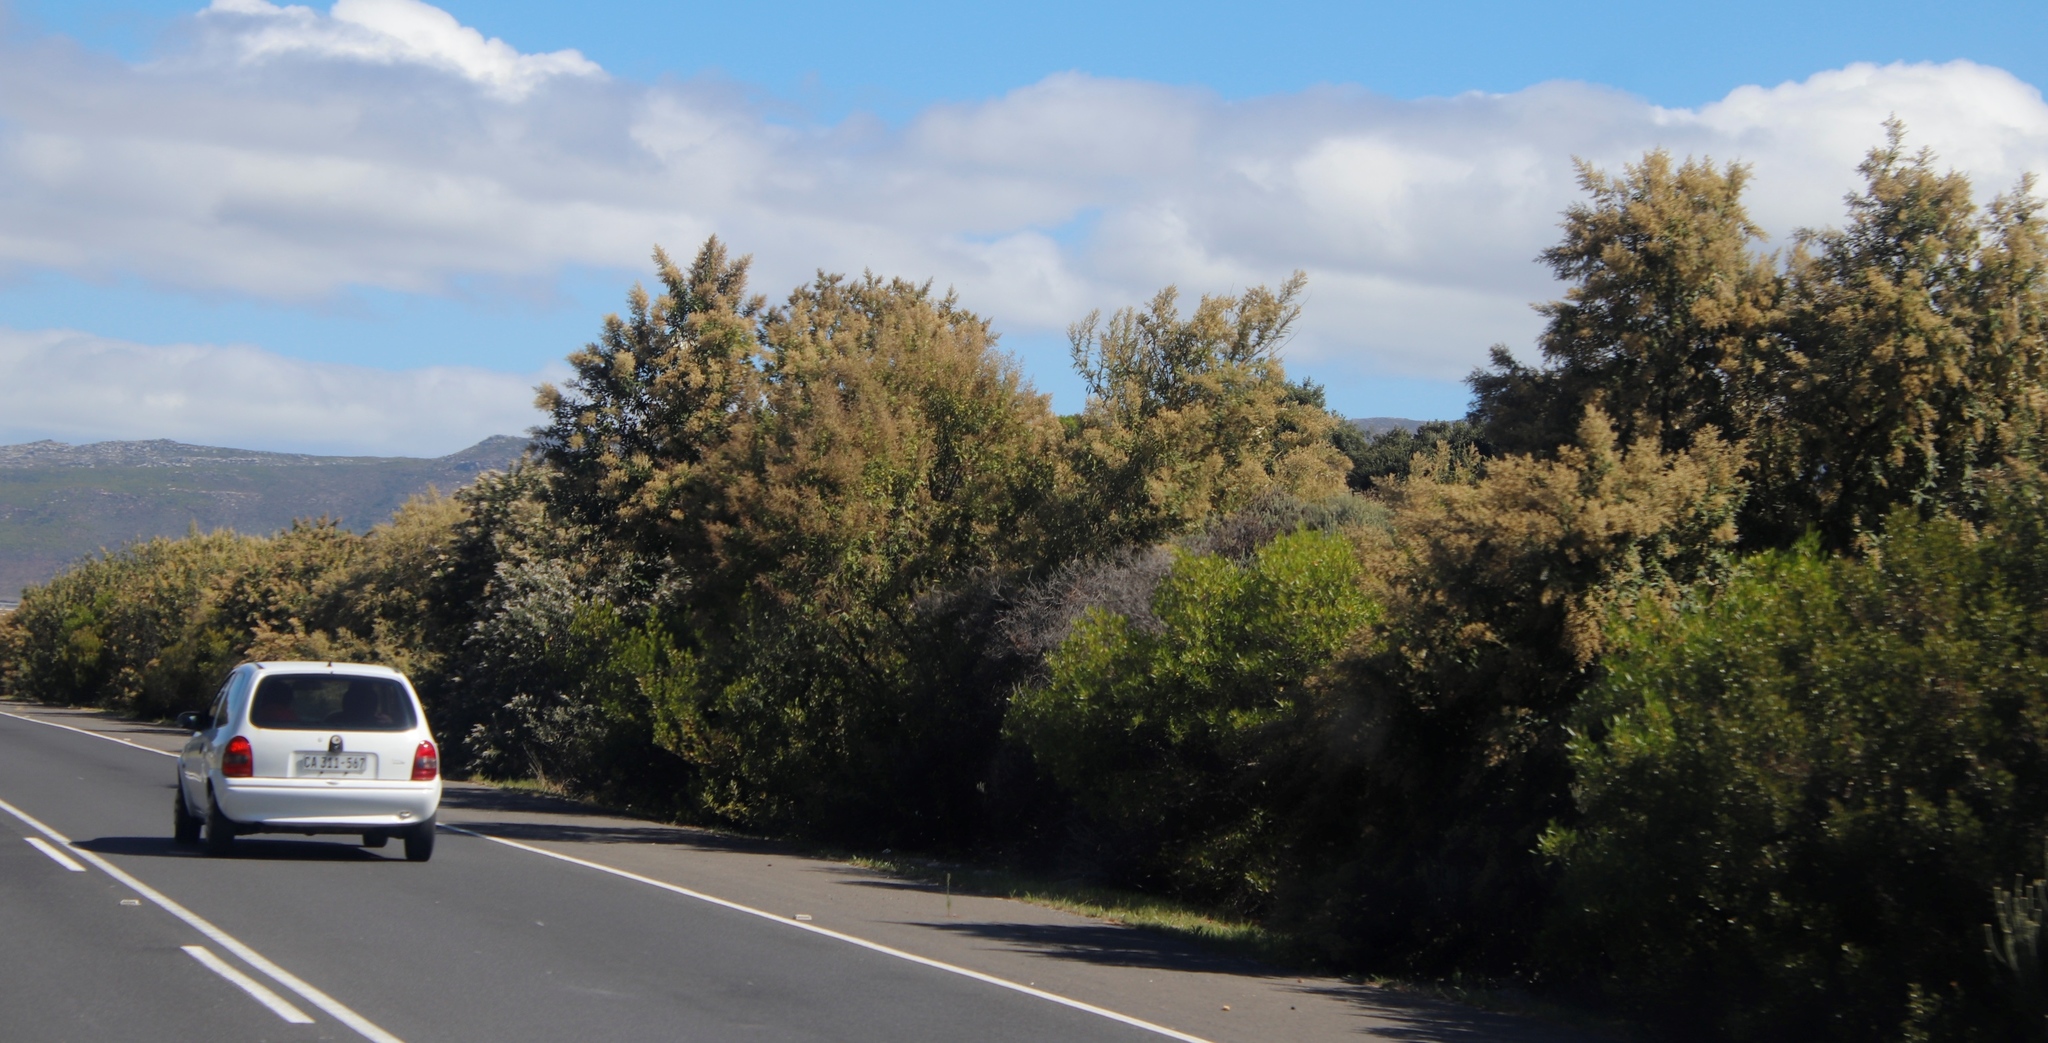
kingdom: Plantae
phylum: Tracheophyta
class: Magnoliopsida
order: Asterales
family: Asteraceae
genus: Tarchonanthus
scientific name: Tarchonanthus littoralis
